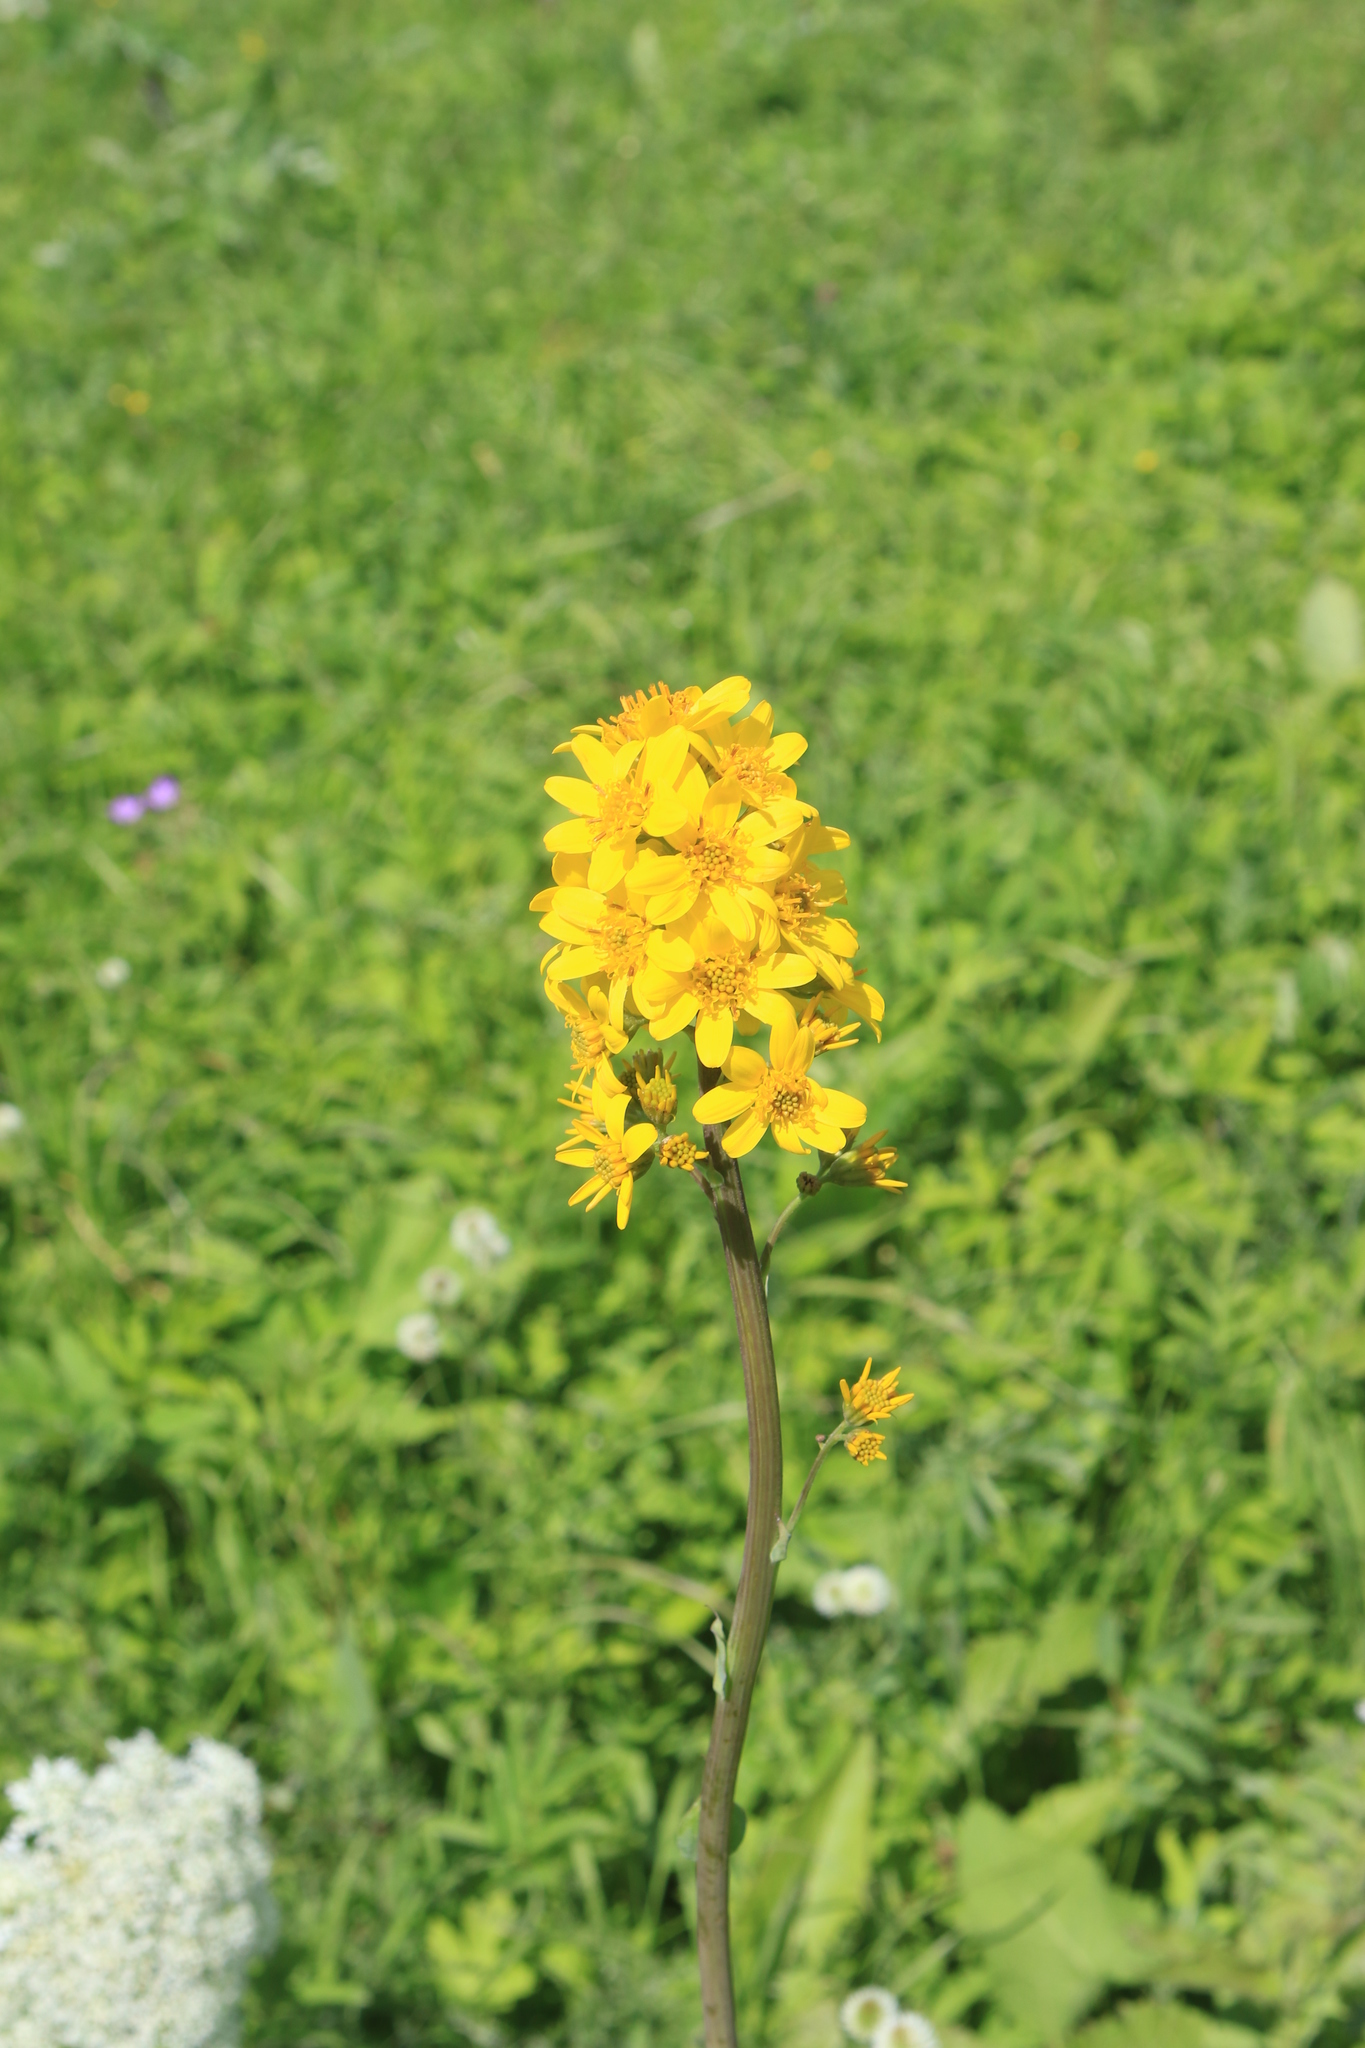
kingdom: Plantae
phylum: Tracheophyta
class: Magnoliopsida
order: Asterales
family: Asteraceae
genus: Ligularia
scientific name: Ligularia glauca
